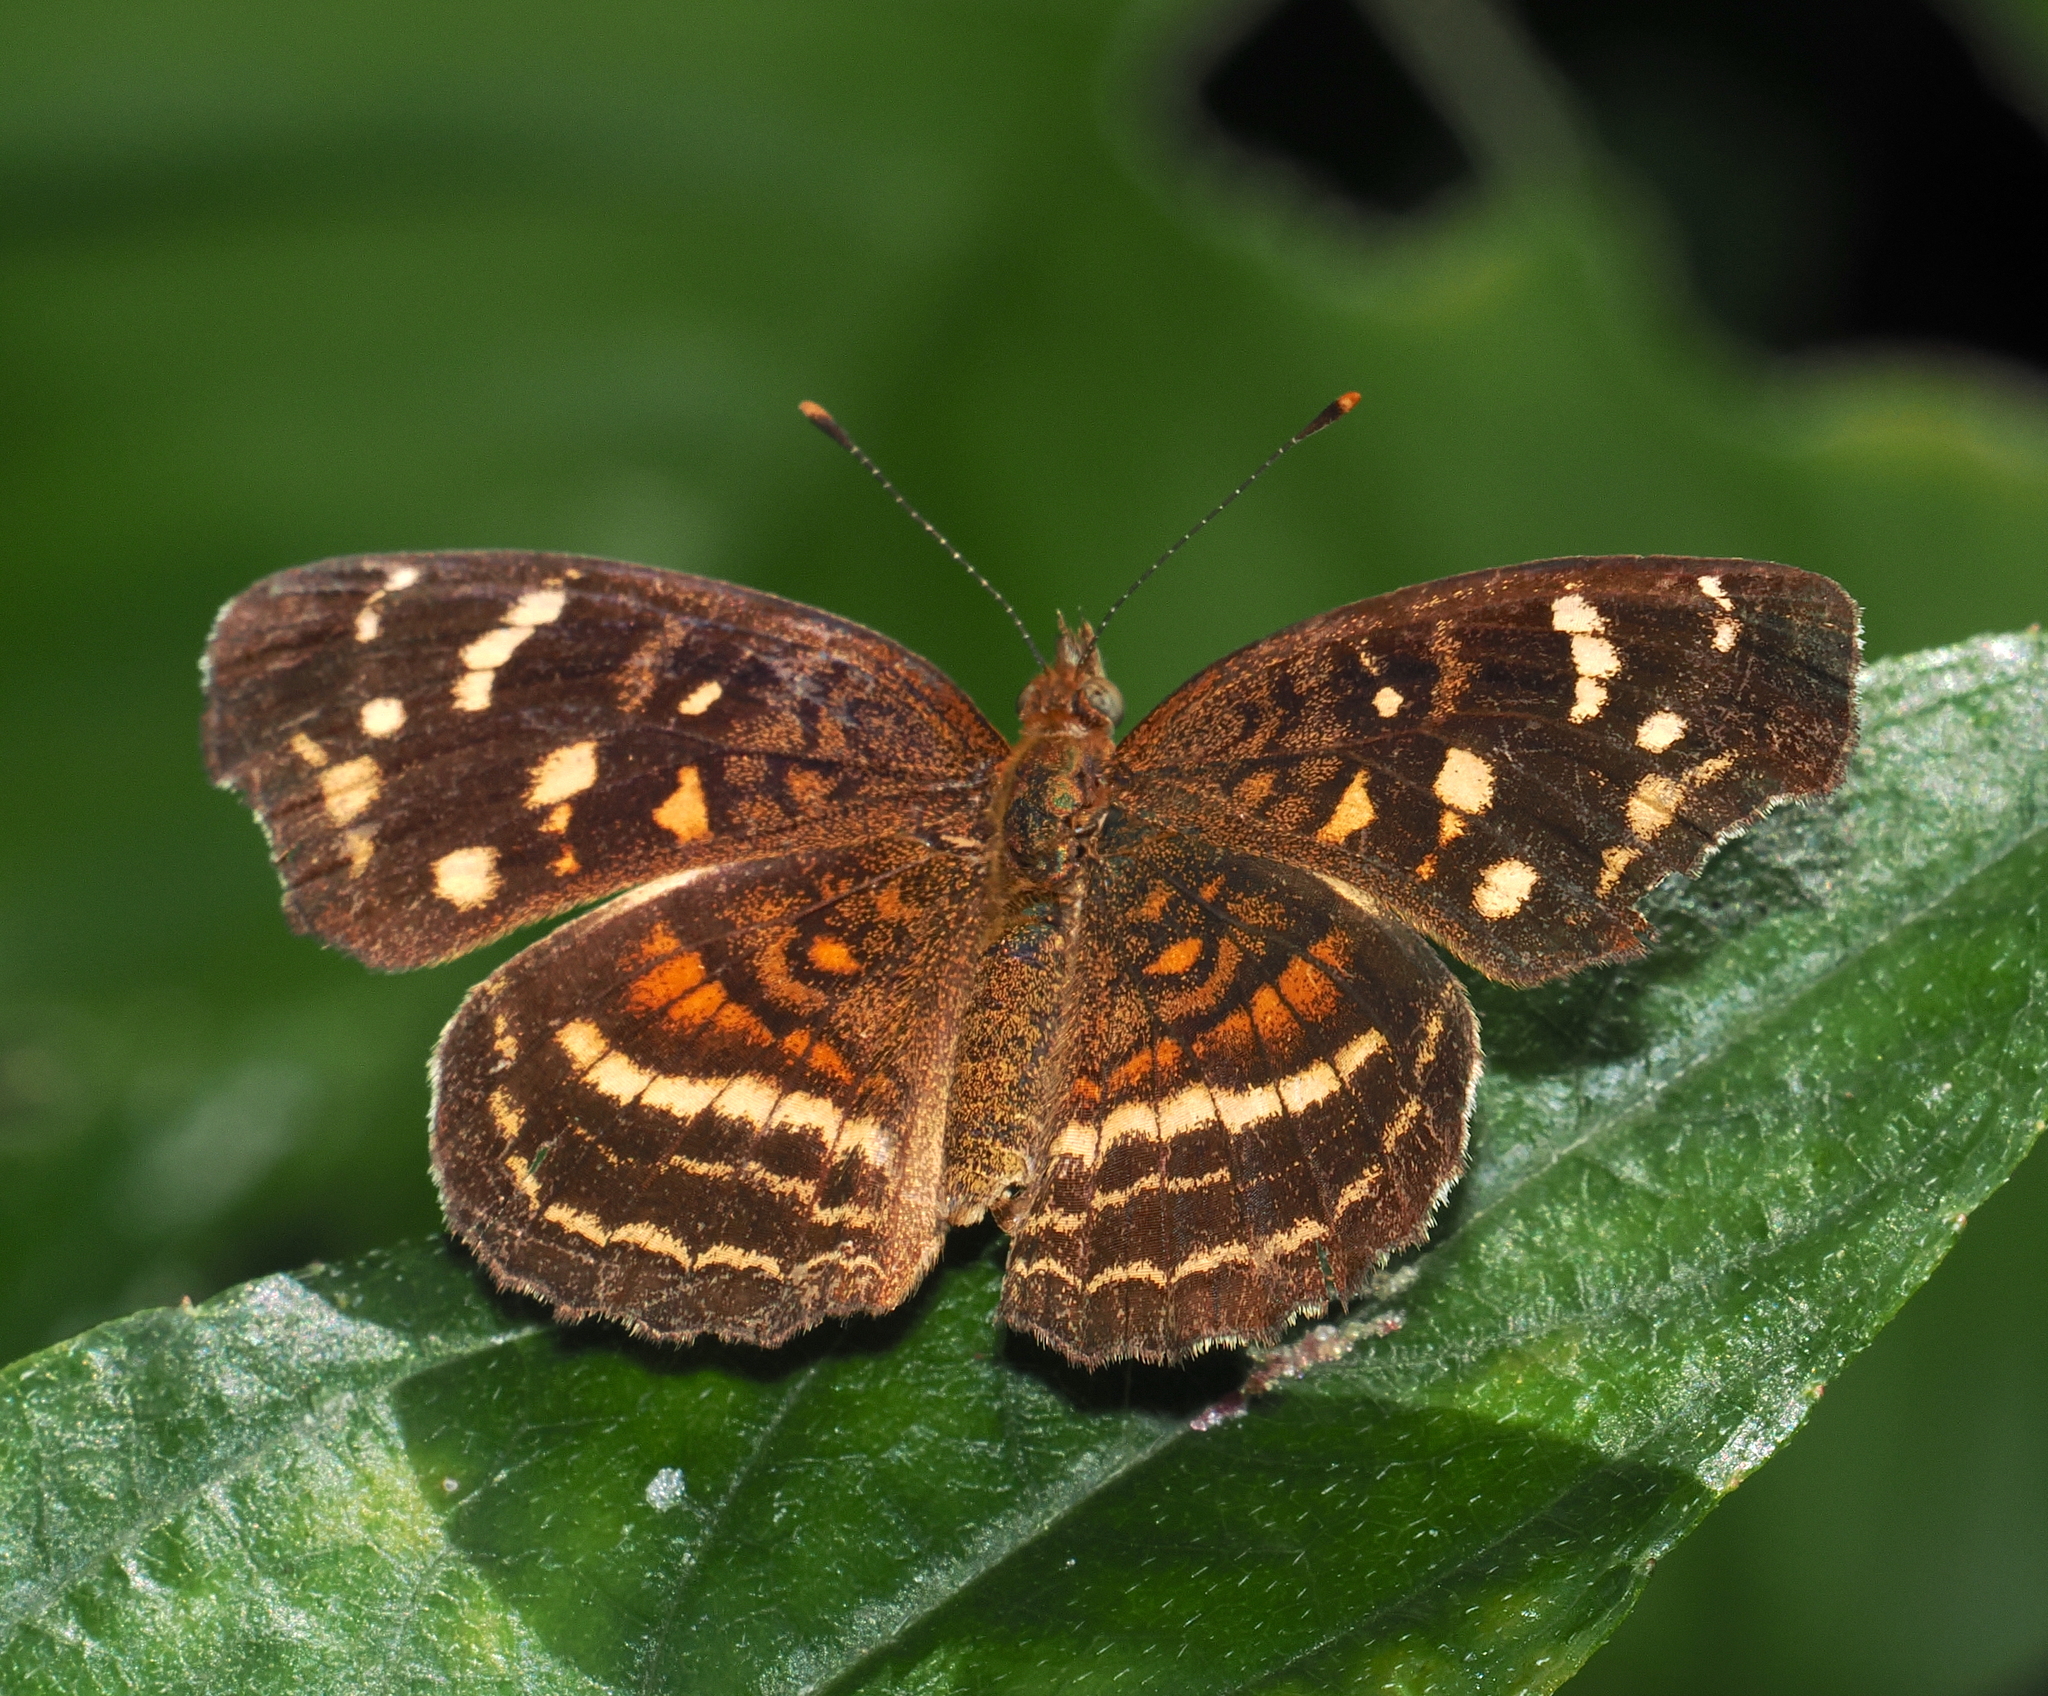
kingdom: Animalia
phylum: Arthropoda
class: Insecta
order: Lepidoptera
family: Nymphalidae
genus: Anthanassa
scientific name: Anthanassa annulata
